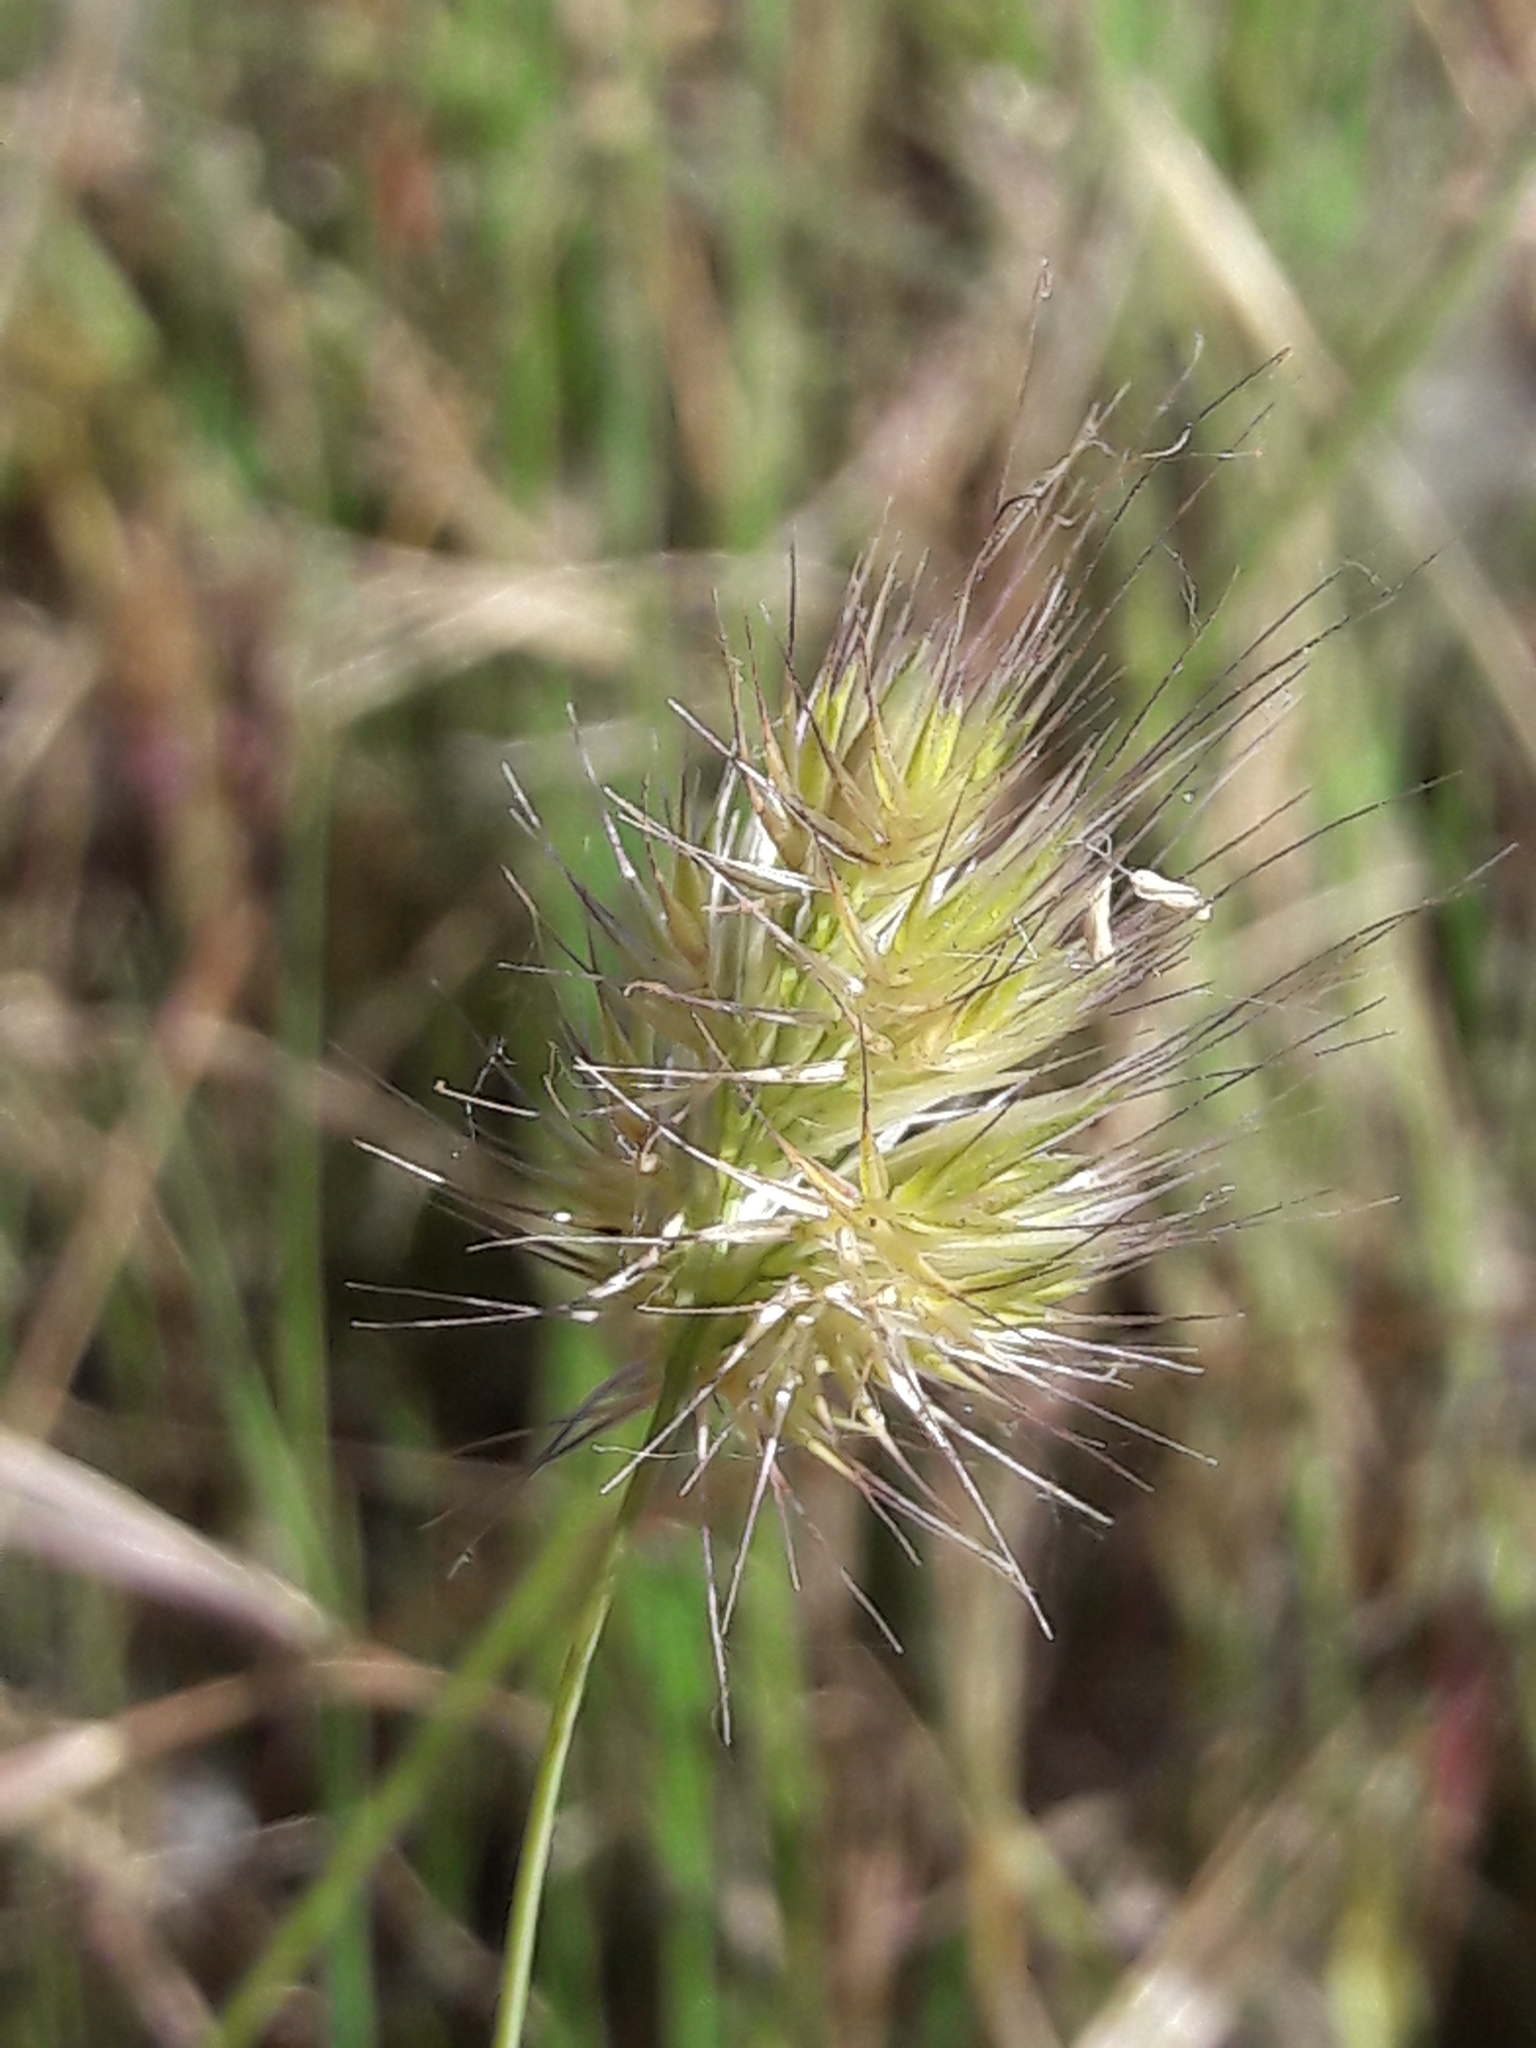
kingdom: Plantae
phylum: Tracheophyta
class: Liliopsida
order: Poales
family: Poaceae
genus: Cynosurus
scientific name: Cynosurus echinatus
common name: Rough dog's-tail
